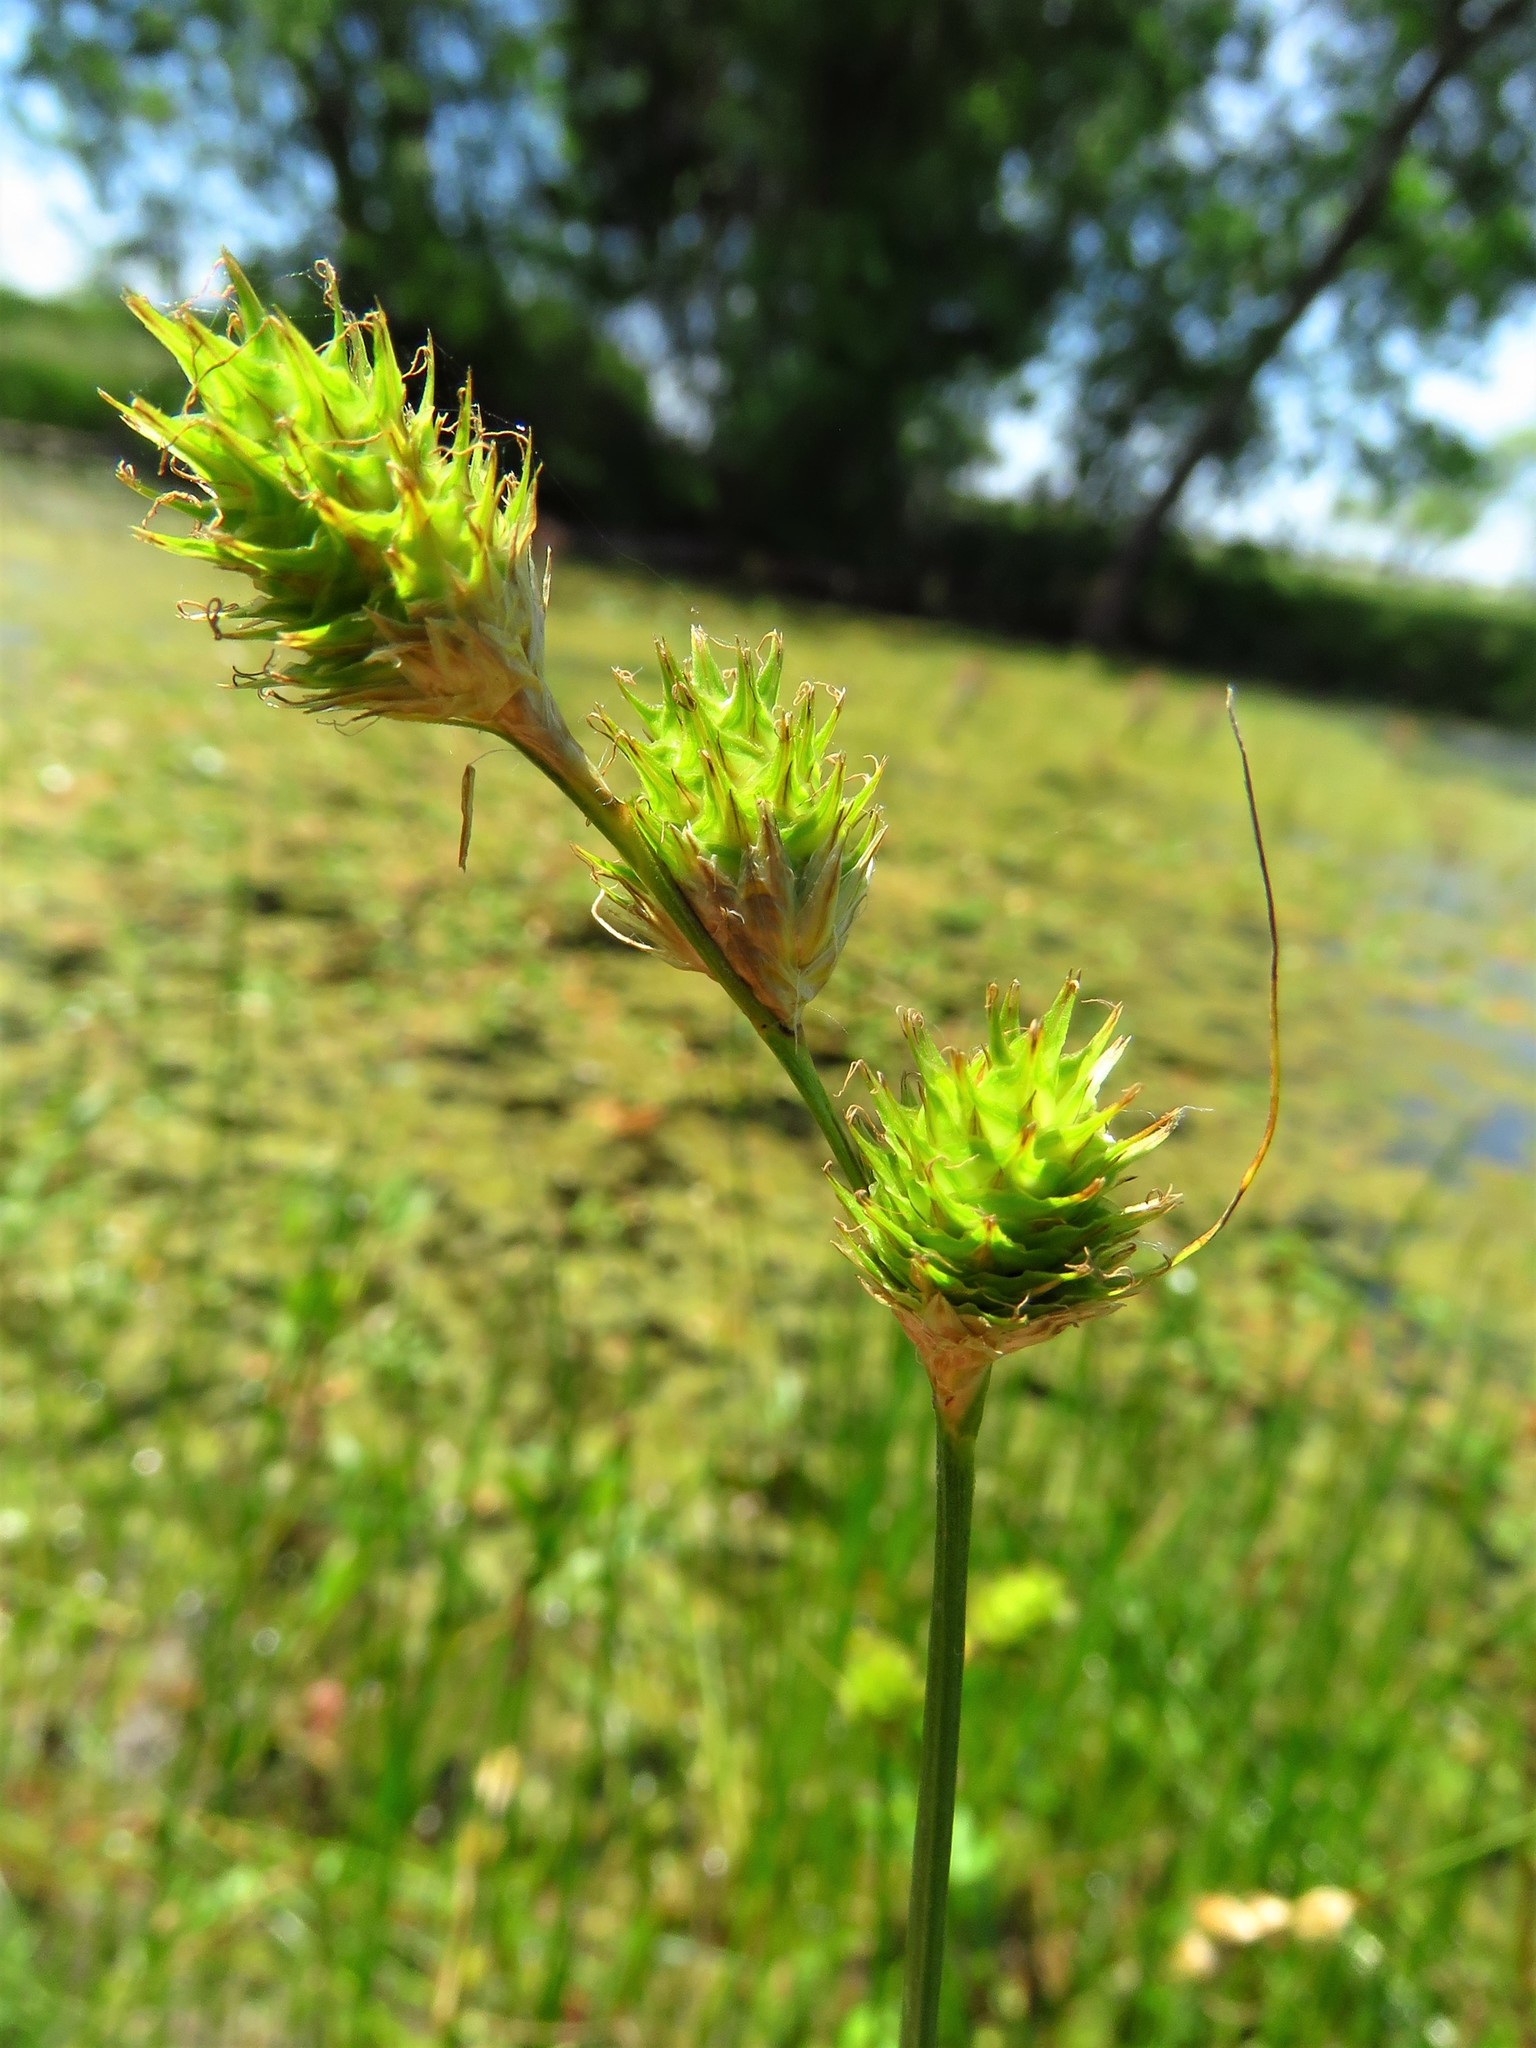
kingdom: Plantae
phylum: Tracheophyta
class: Liliopsida
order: Poales
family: Cyperaceae
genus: Carex
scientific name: Carex tetrastachya
